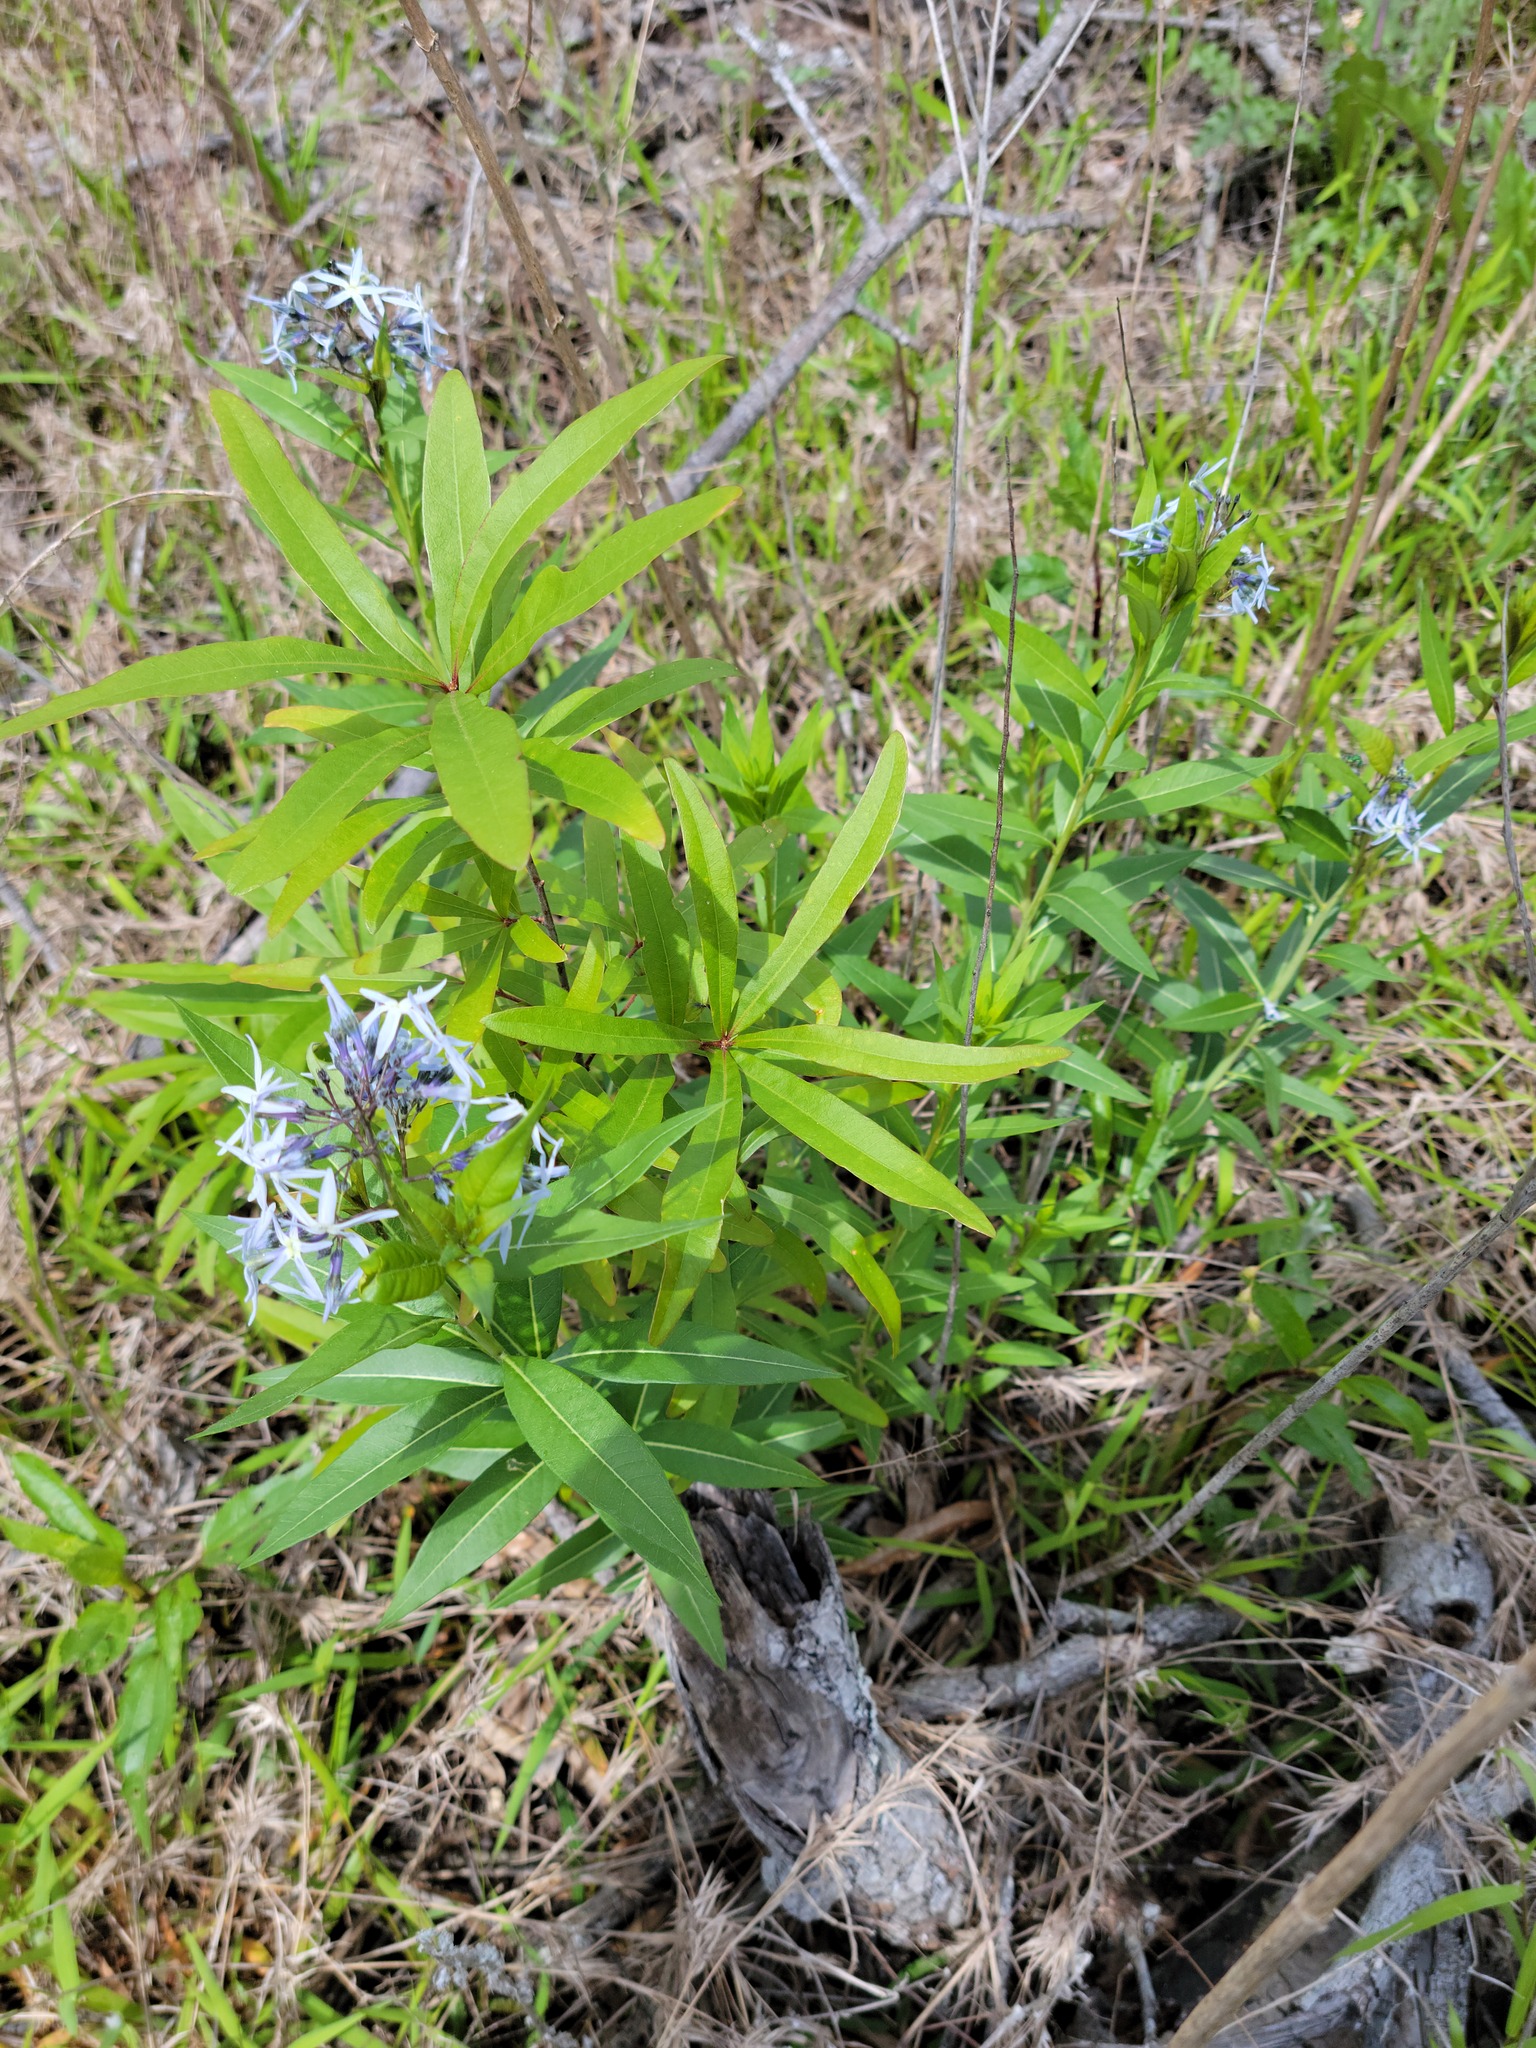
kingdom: Plantae
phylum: Tracheophyta
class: Magnoliopsida
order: Gentianales
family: Apocynaceae
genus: Amsonia
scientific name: Amsonia tabernaemontana
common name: Texas-star
